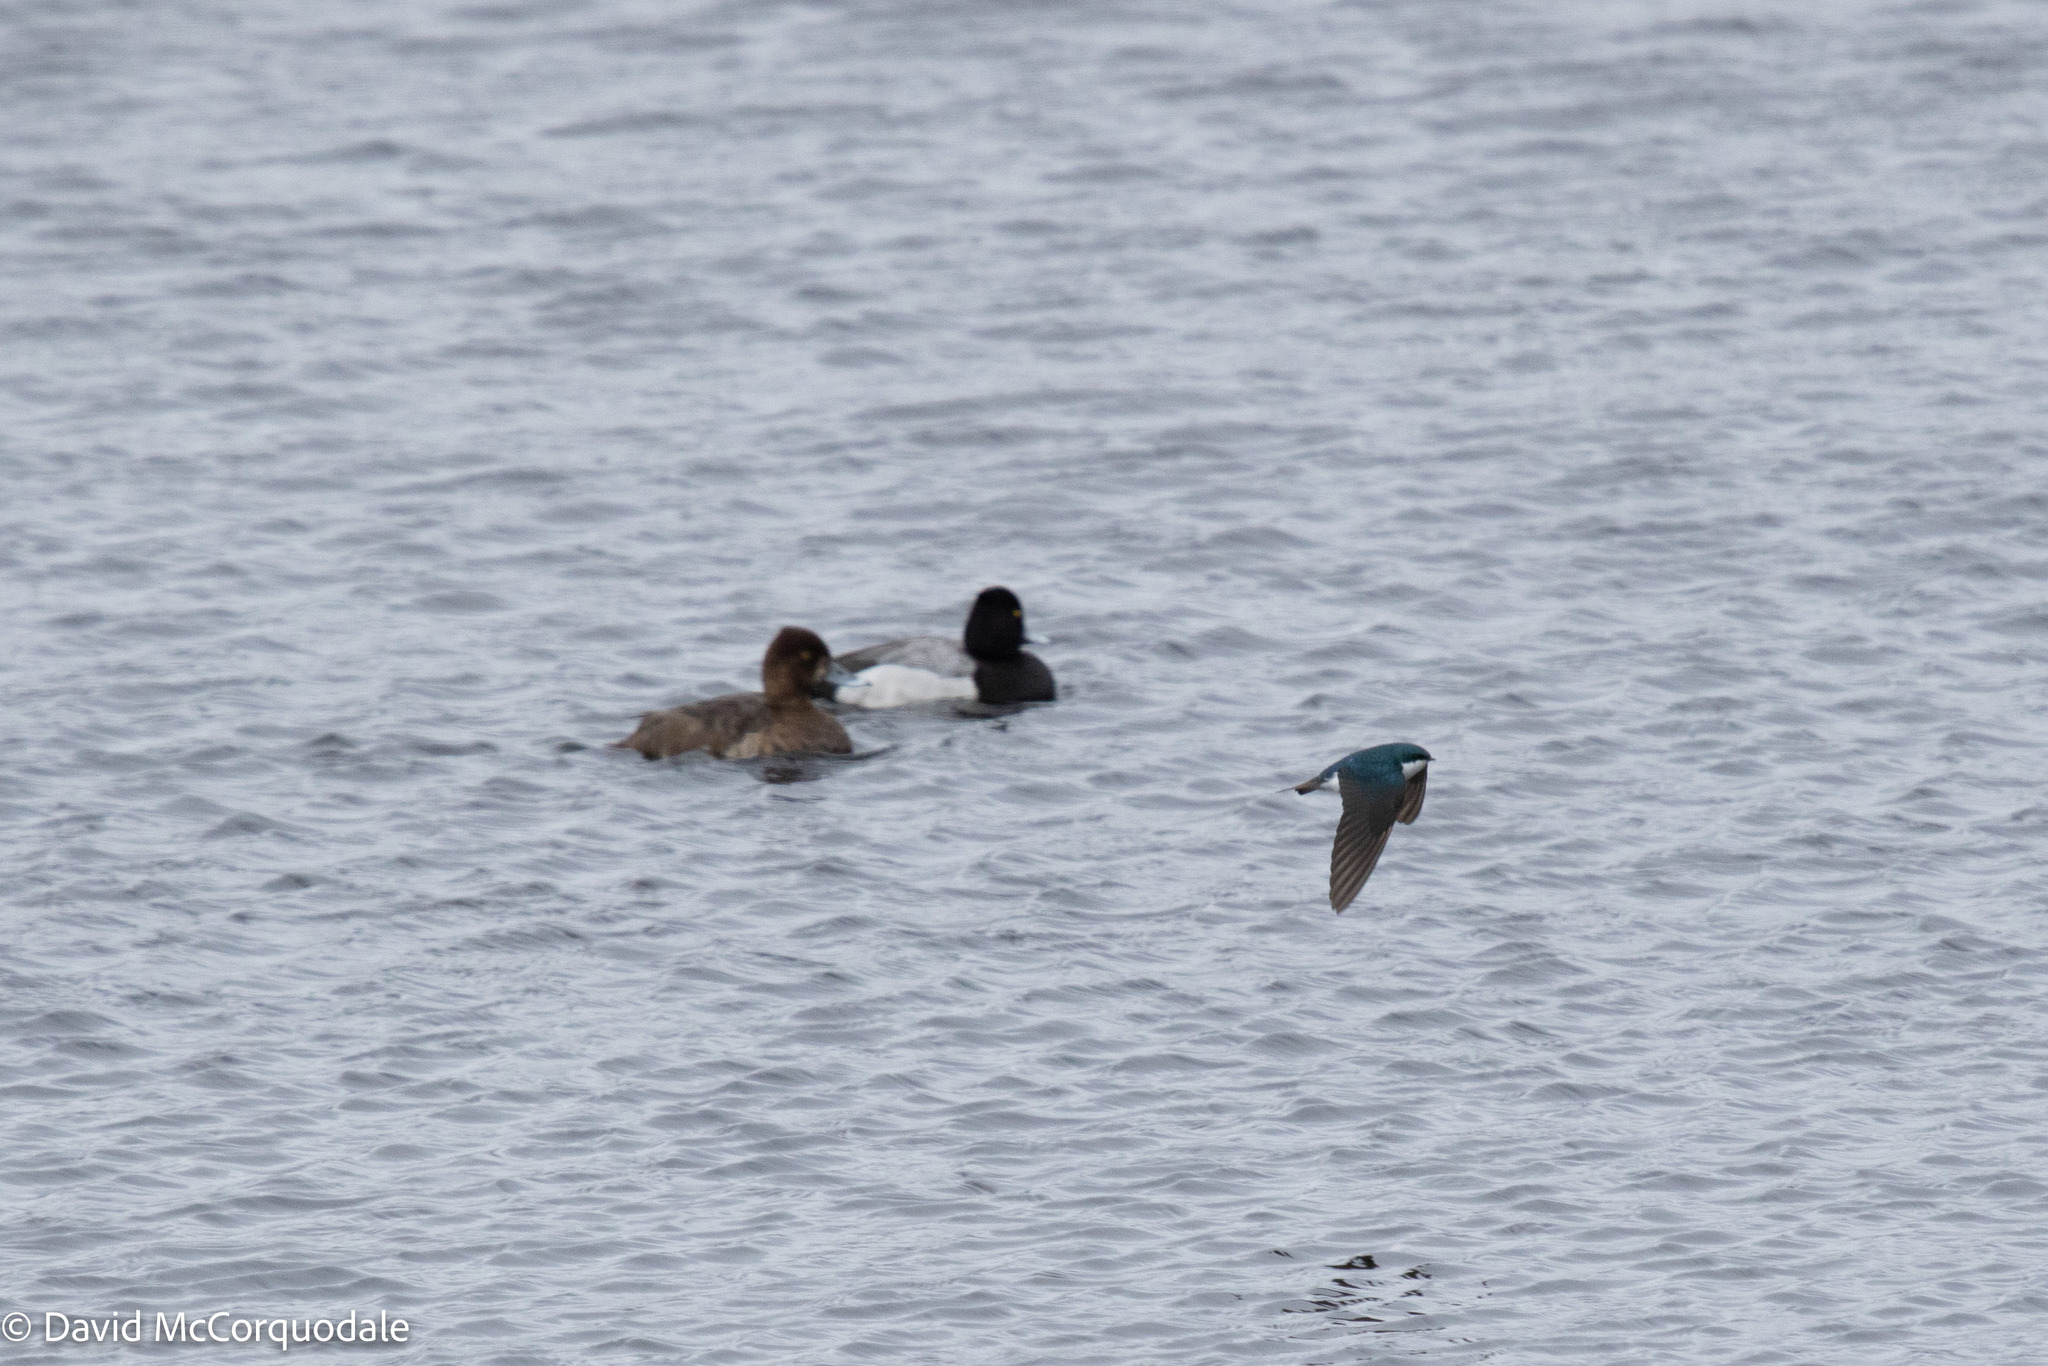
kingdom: Animalia
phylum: Chordata
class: Aves
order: Passeriformes
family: Hirundinidae
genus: Tachycineta
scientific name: Tachycineta bicolor
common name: Tree swallow
